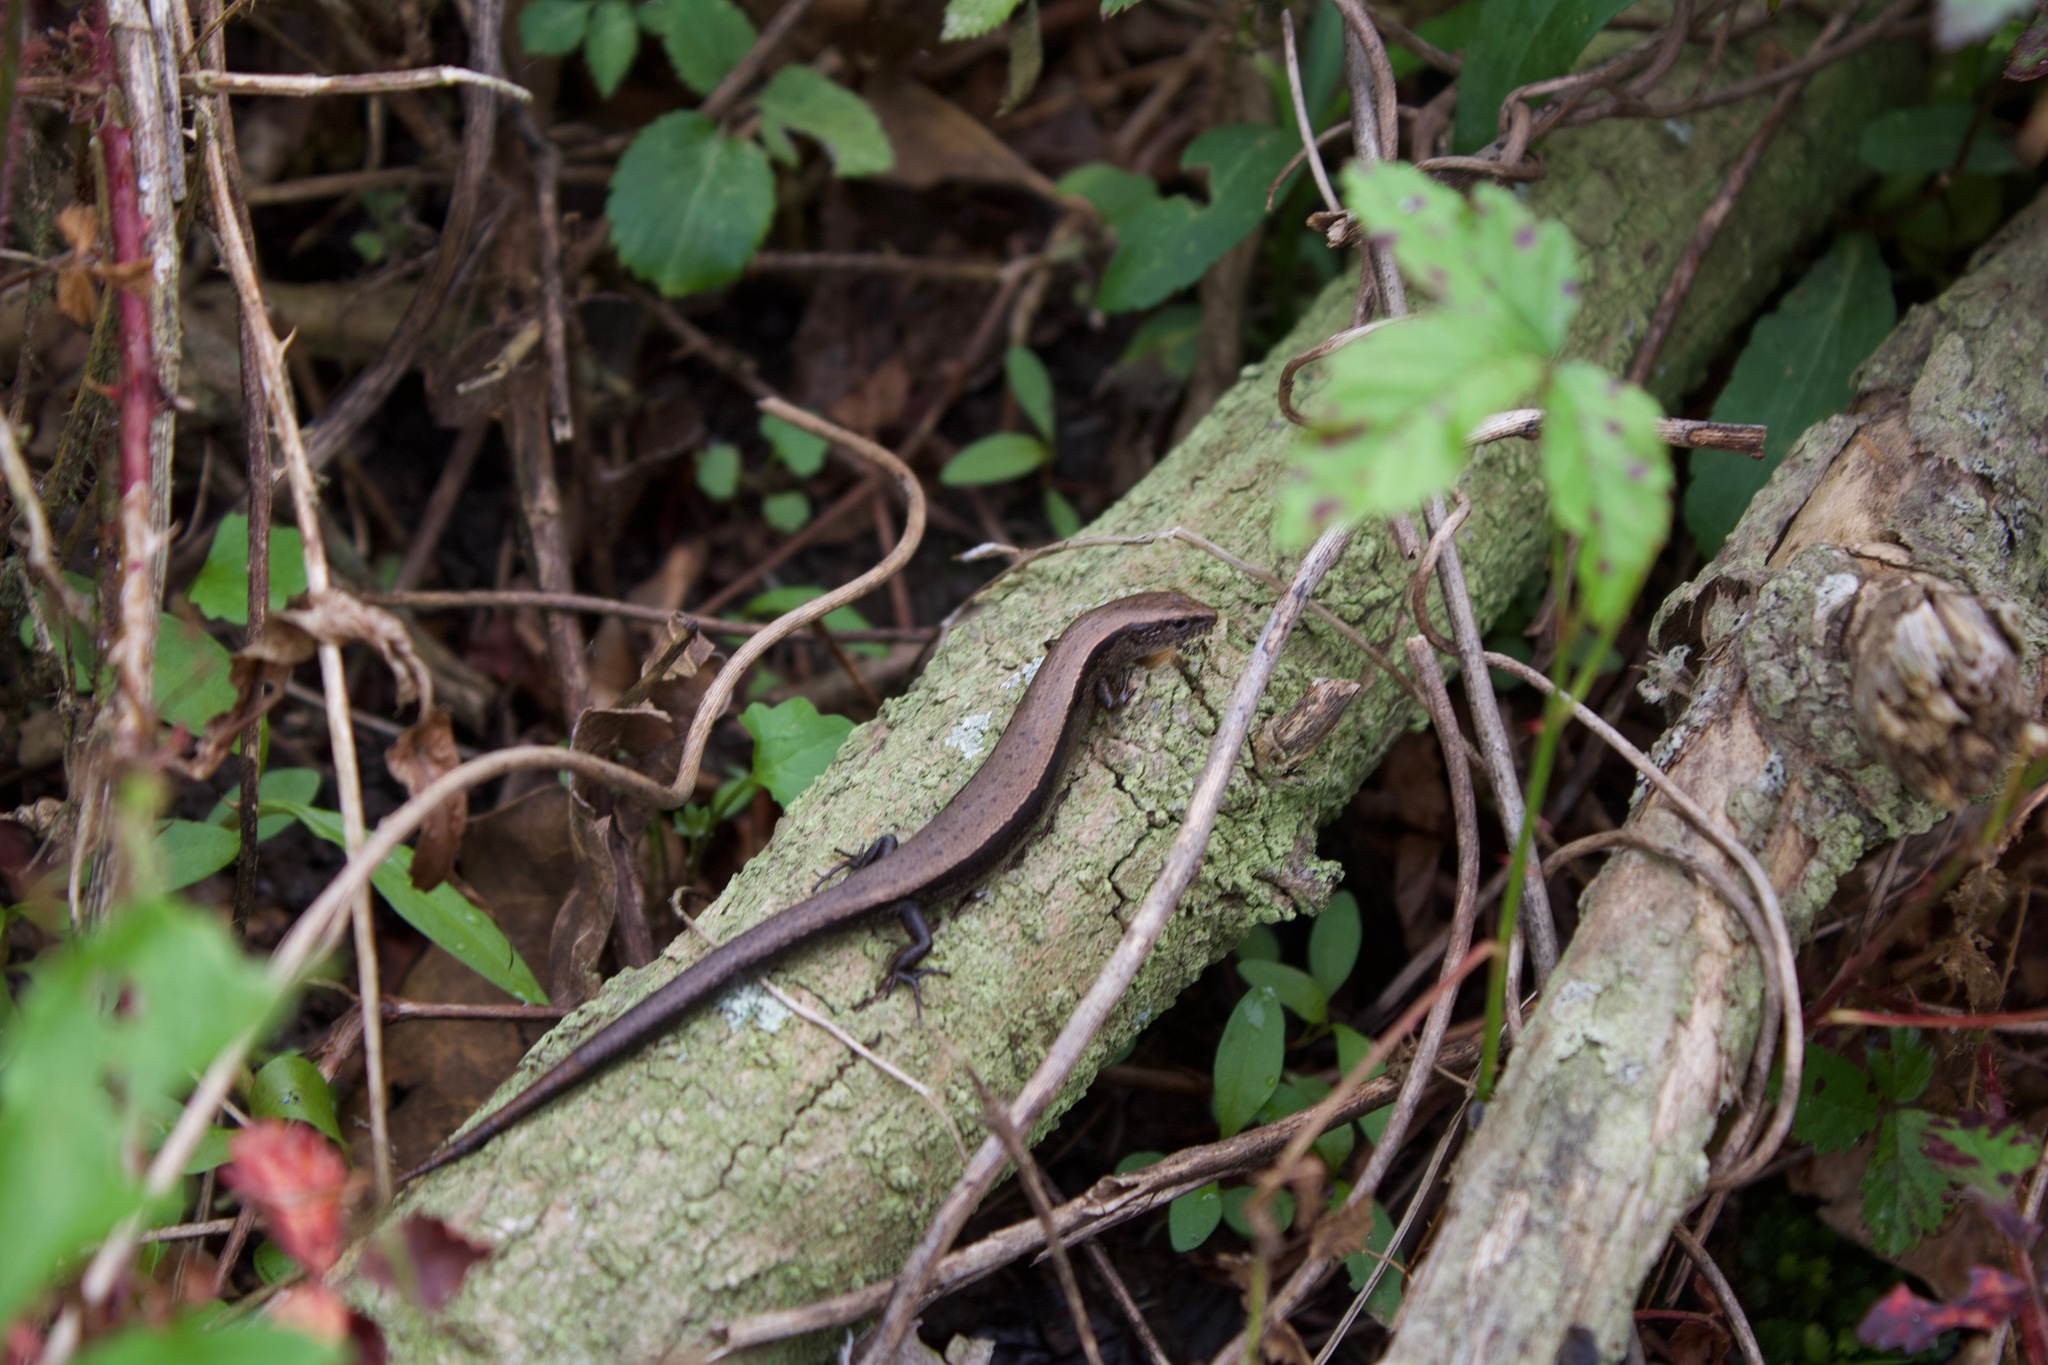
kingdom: Animalia
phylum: Chordata
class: Squamata
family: Scincidae
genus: Scincella
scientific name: Scincella lateralis
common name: Ground skink
